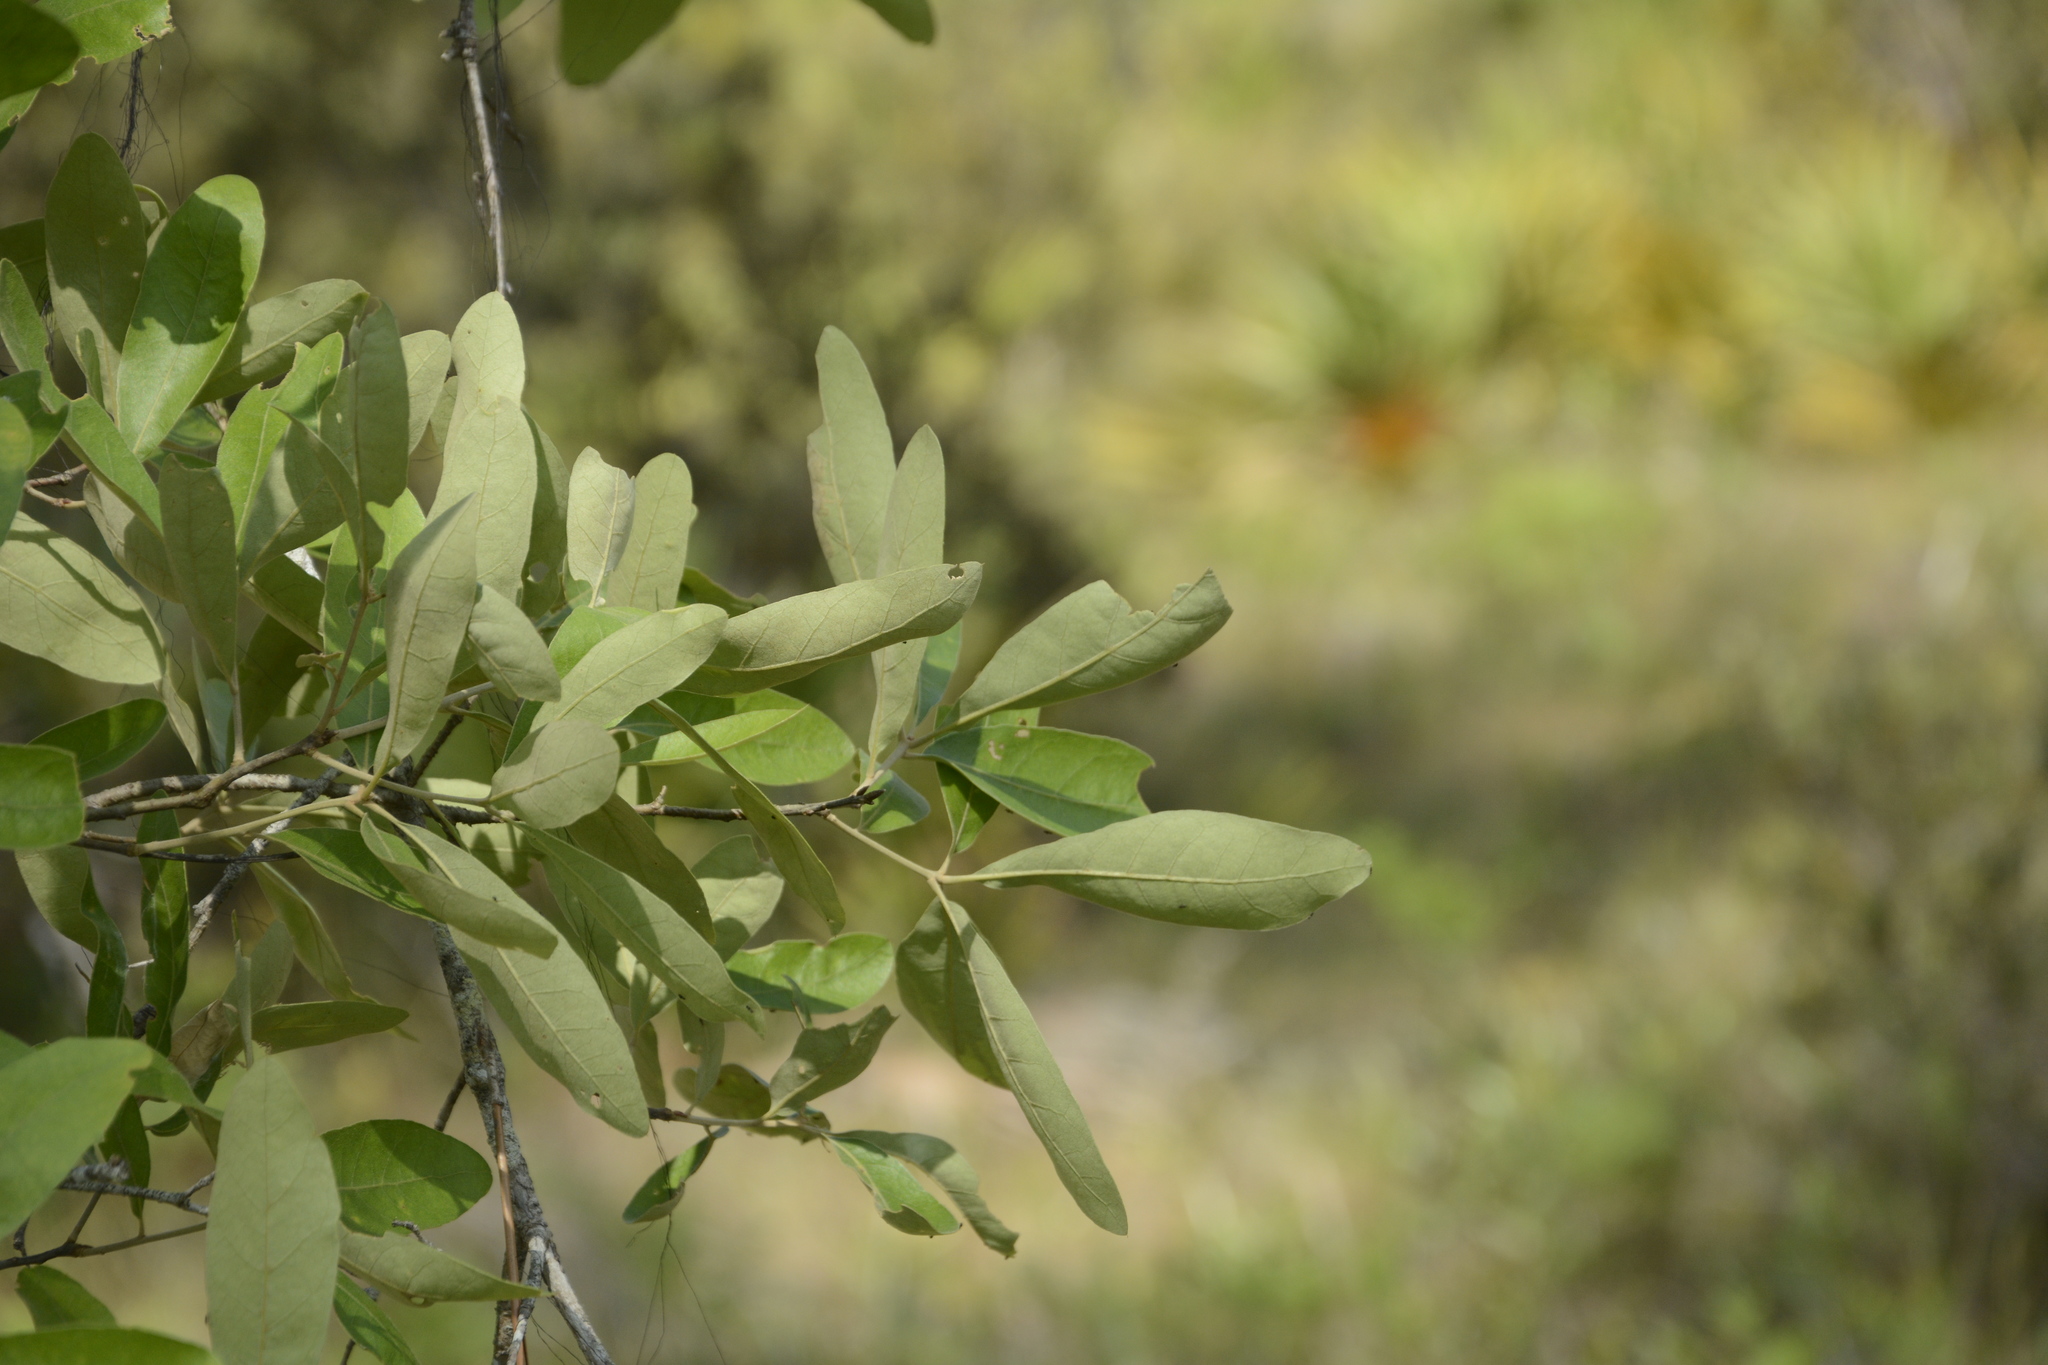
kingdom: Plantae
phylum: Tracheophyta
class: Magnoliopsida
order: Fagales
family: Fagaceae
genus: Quercus
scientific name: Quercus incana
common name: Bluejack oak
